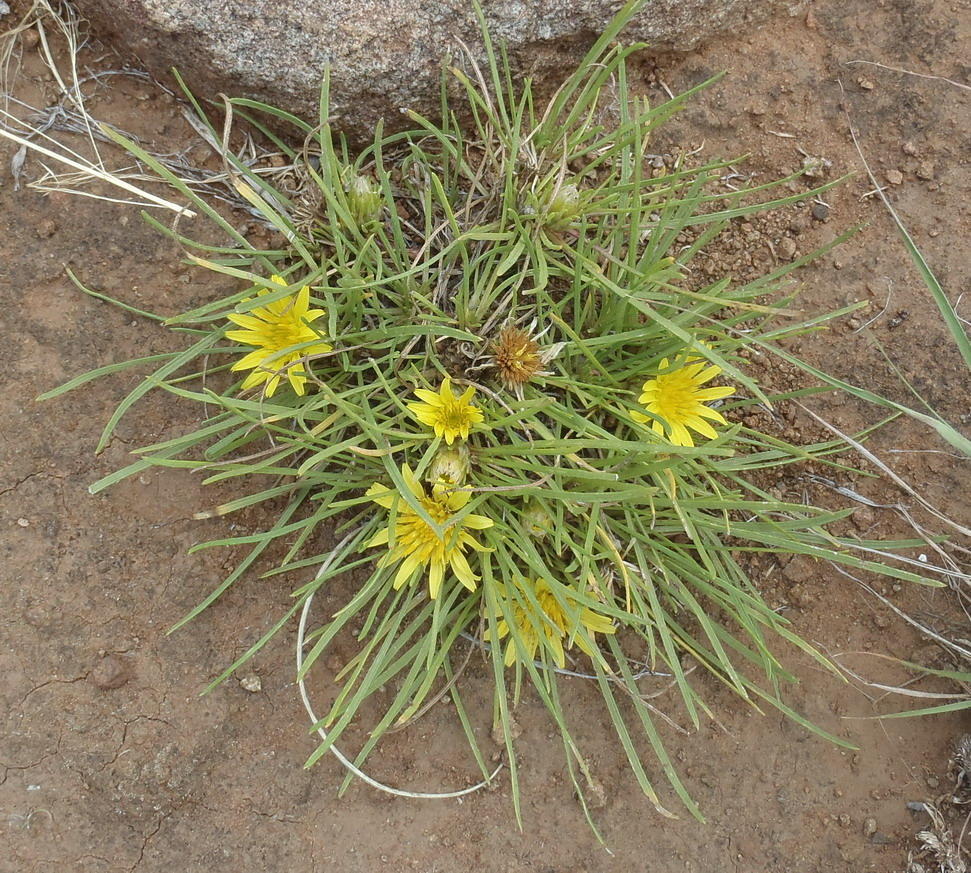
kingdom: Plantae
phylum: Tracheophyta
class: Magnoliopsida
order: Asterales
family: Asteraceae
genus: Geigeria
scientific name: Geigeria ornativa
